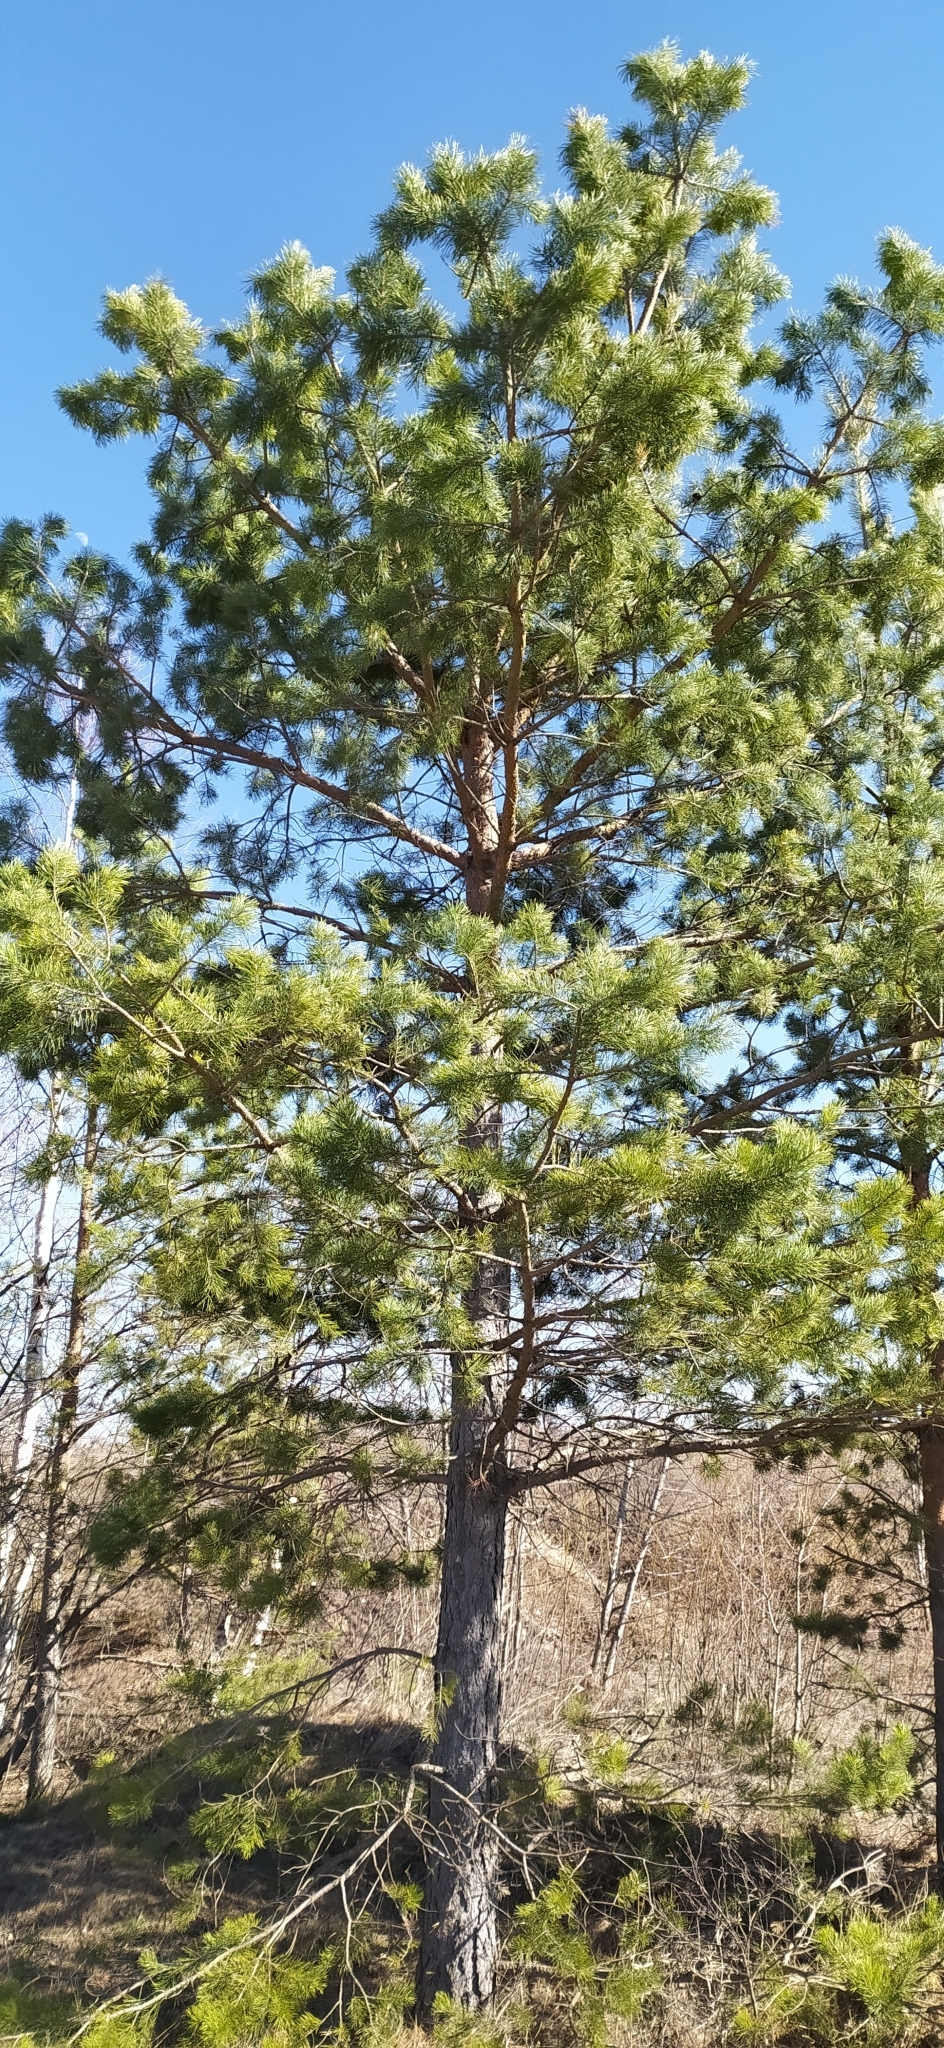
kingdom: Plantae
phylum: Tracheophyta
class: Pinopsida
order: Pinales
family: Pinaceae
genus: Pinus
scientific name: Pinus sylvestris
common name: Scots pine
